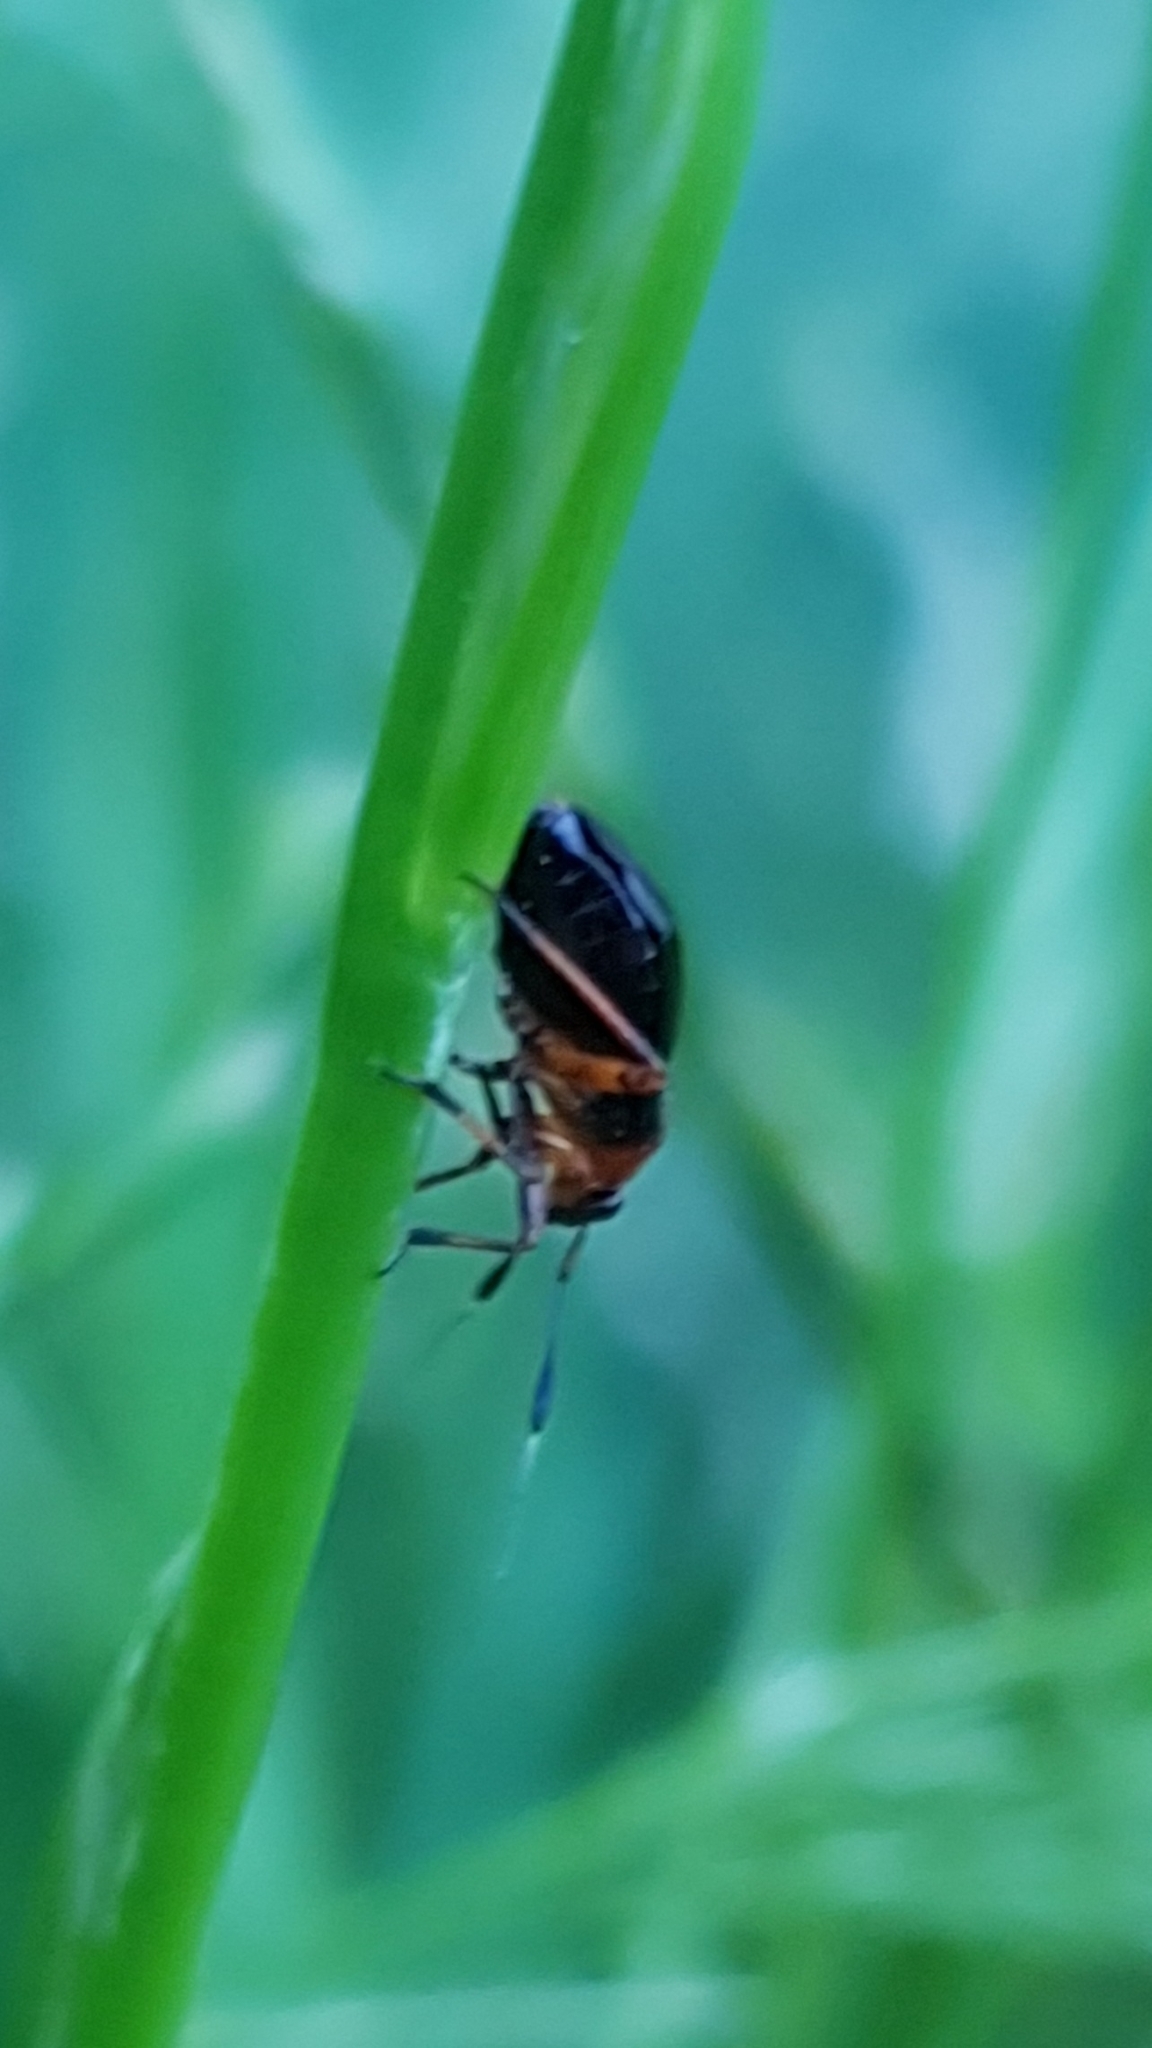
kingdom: Animalia
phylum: Arthropoda
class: Insecta
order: Hemiptera
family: Miridae
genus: Capsus
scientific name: Capsus ater
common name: Black plant bug
